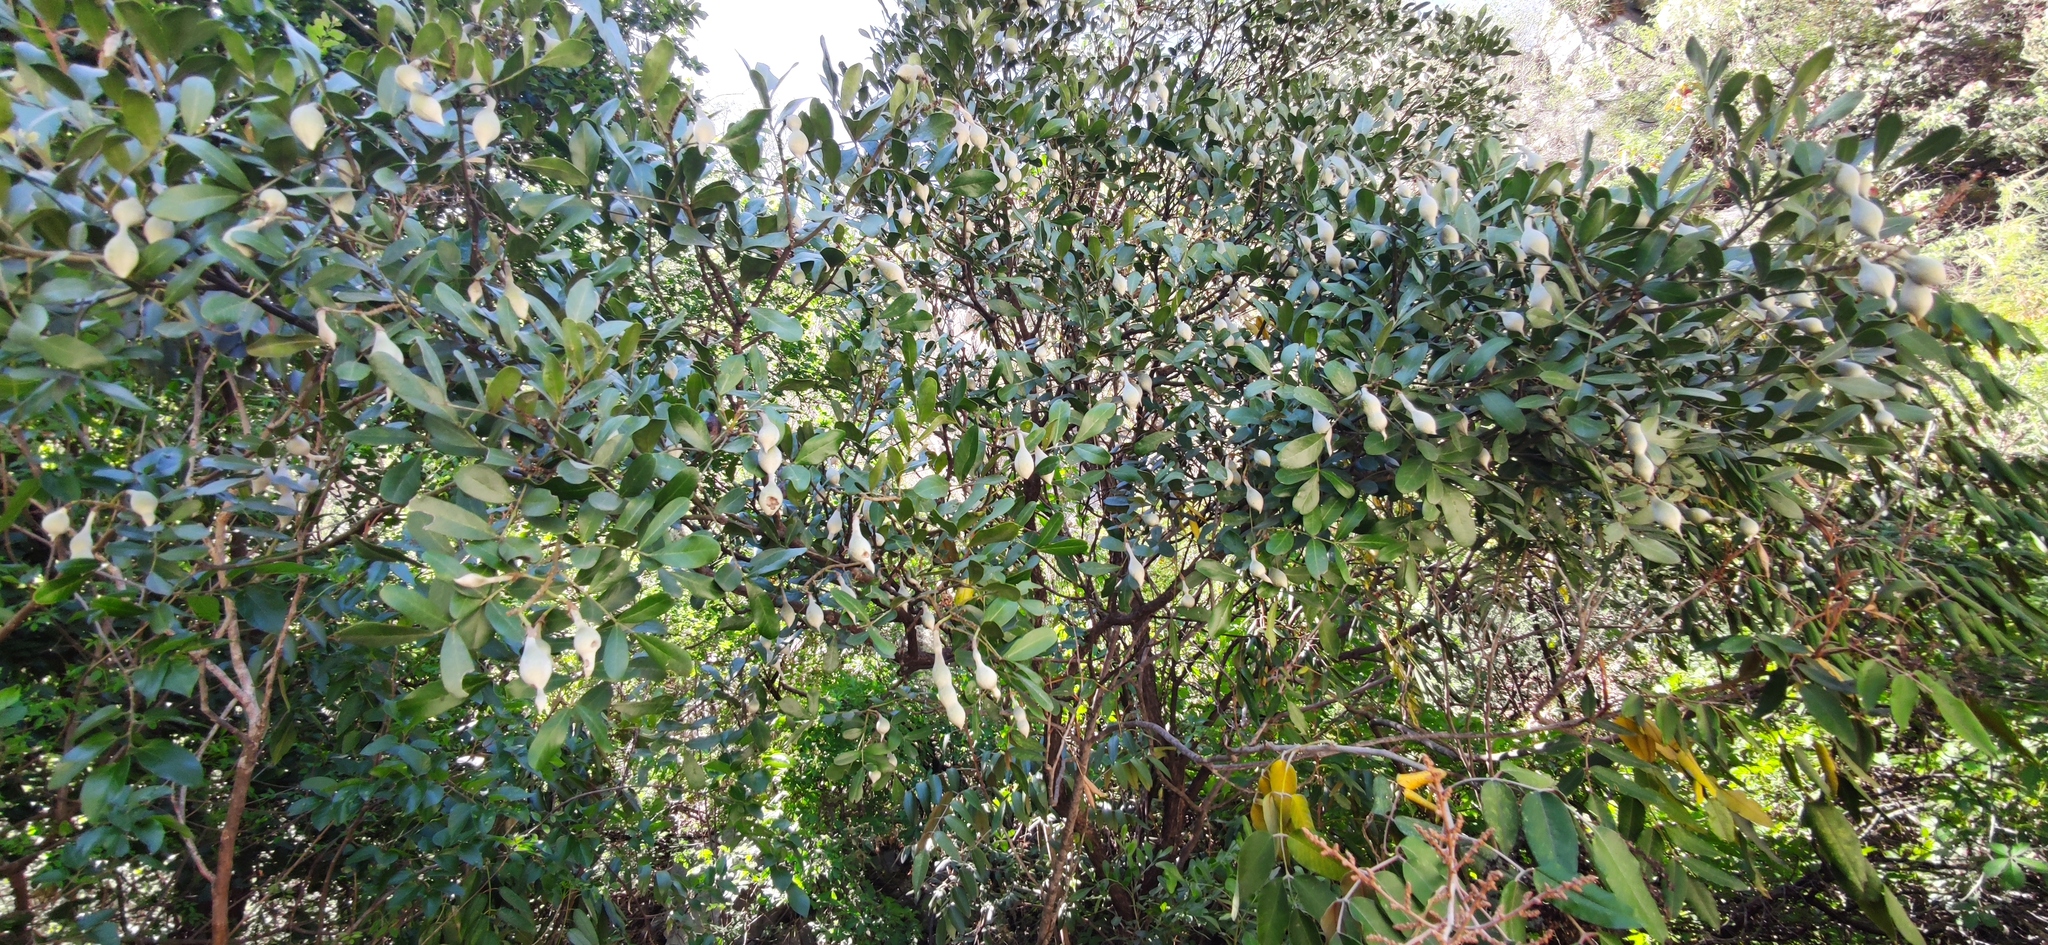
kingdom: Plantae
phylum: Tracheophyta
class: Magnoliopsida
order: Fabales
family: Fabaceae
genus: Dermatophyllum
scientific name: Dermatophyllum secundiflorum
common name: Texas-mountain-laurel
